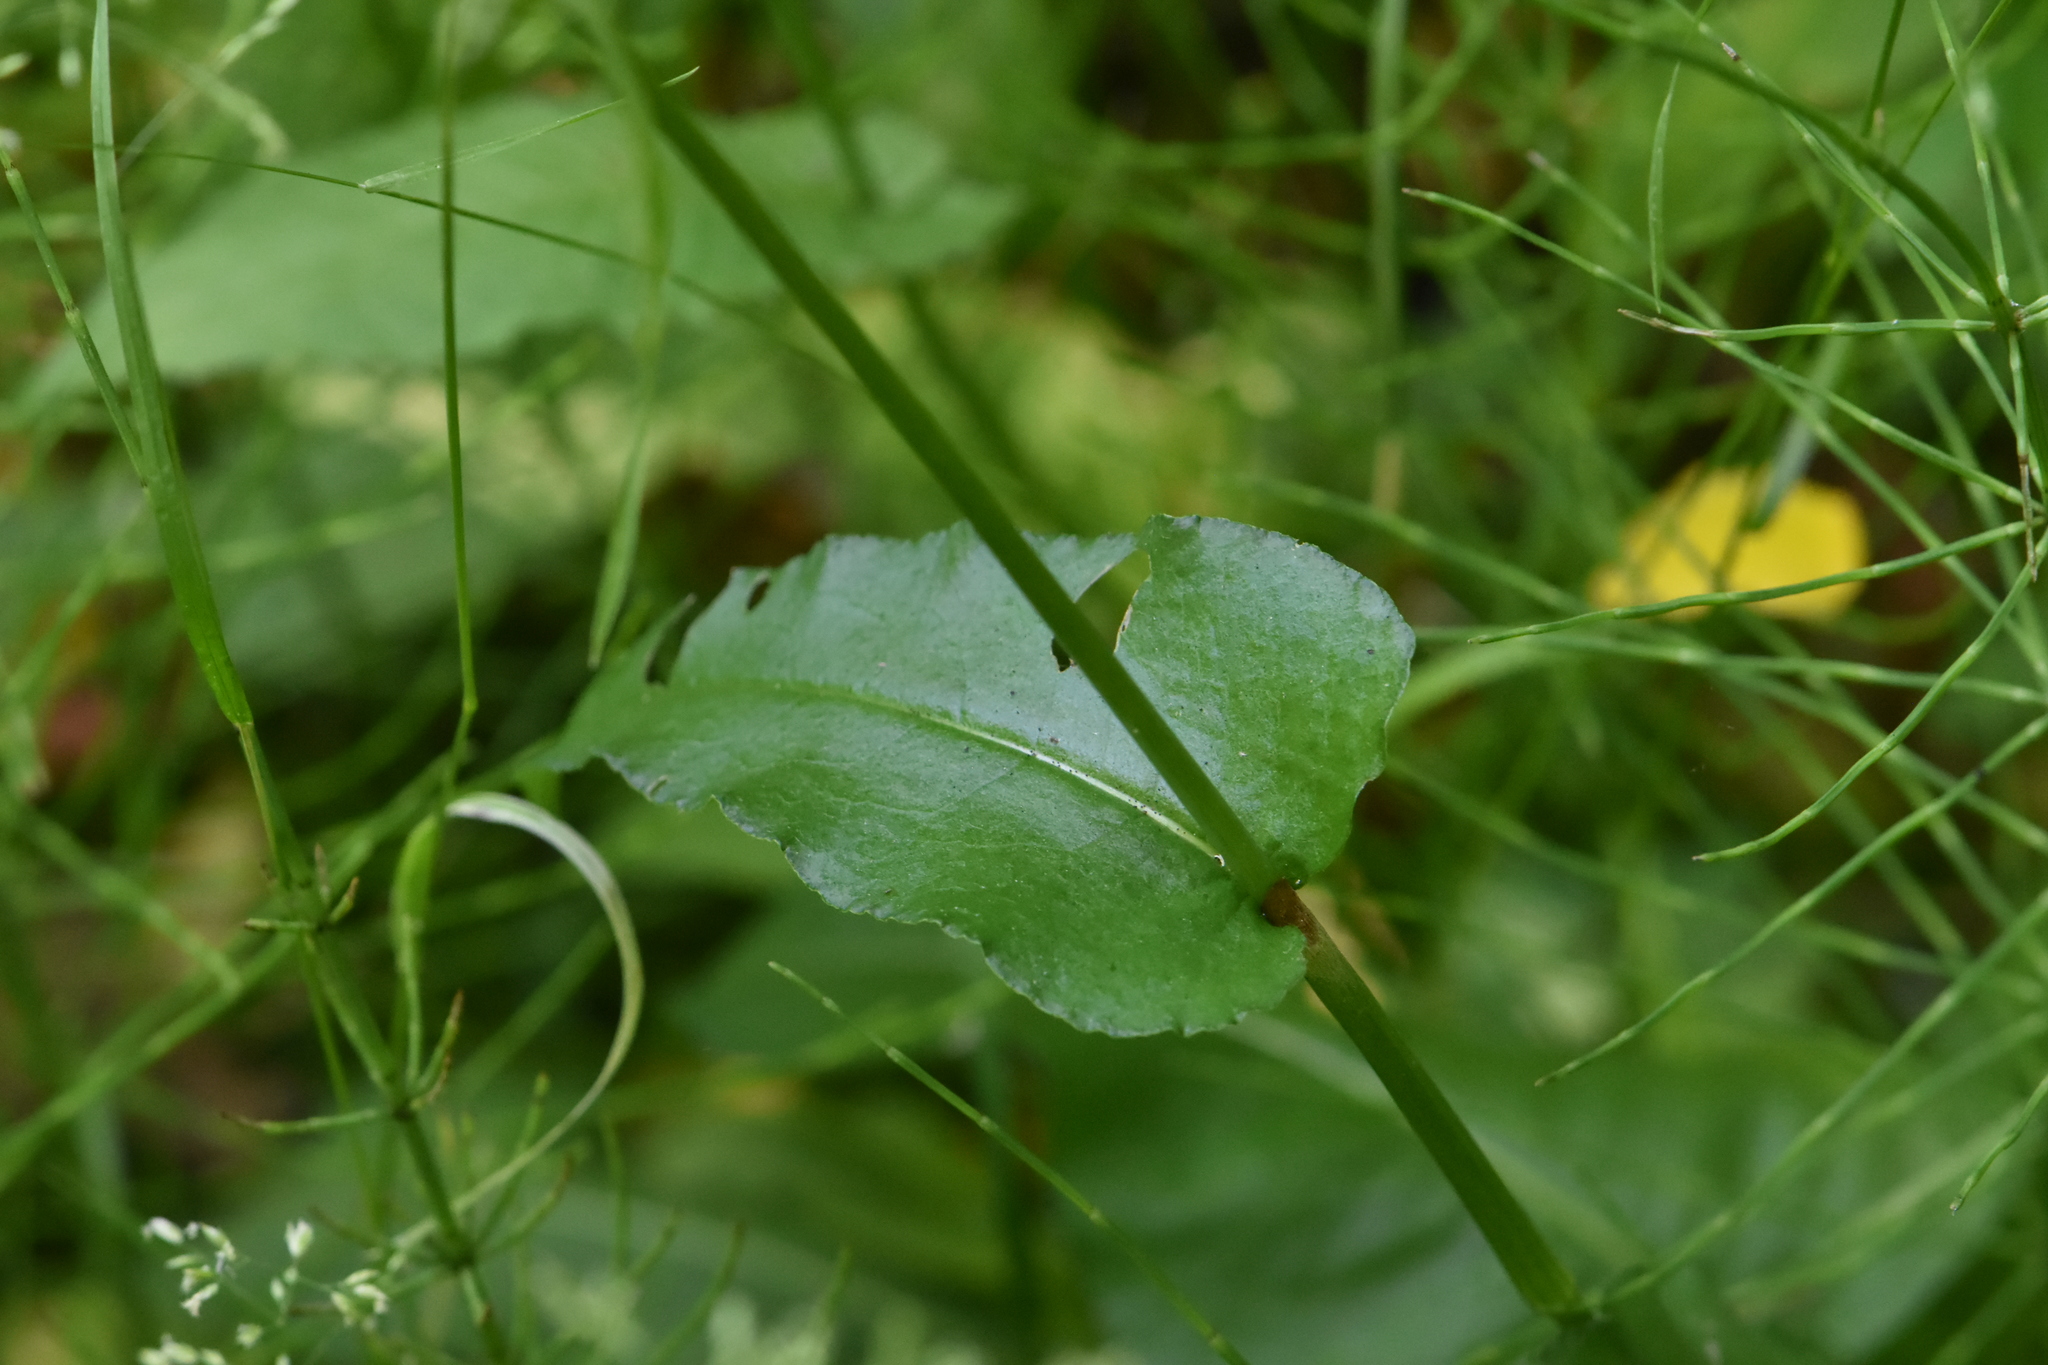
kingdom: Plantae
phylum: Tracheophyta
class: Magnoliopsida
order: Caryophyllales
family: Polygonaceae
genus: Bistorta
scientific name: Bistorta officinalis
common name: Common bistort
